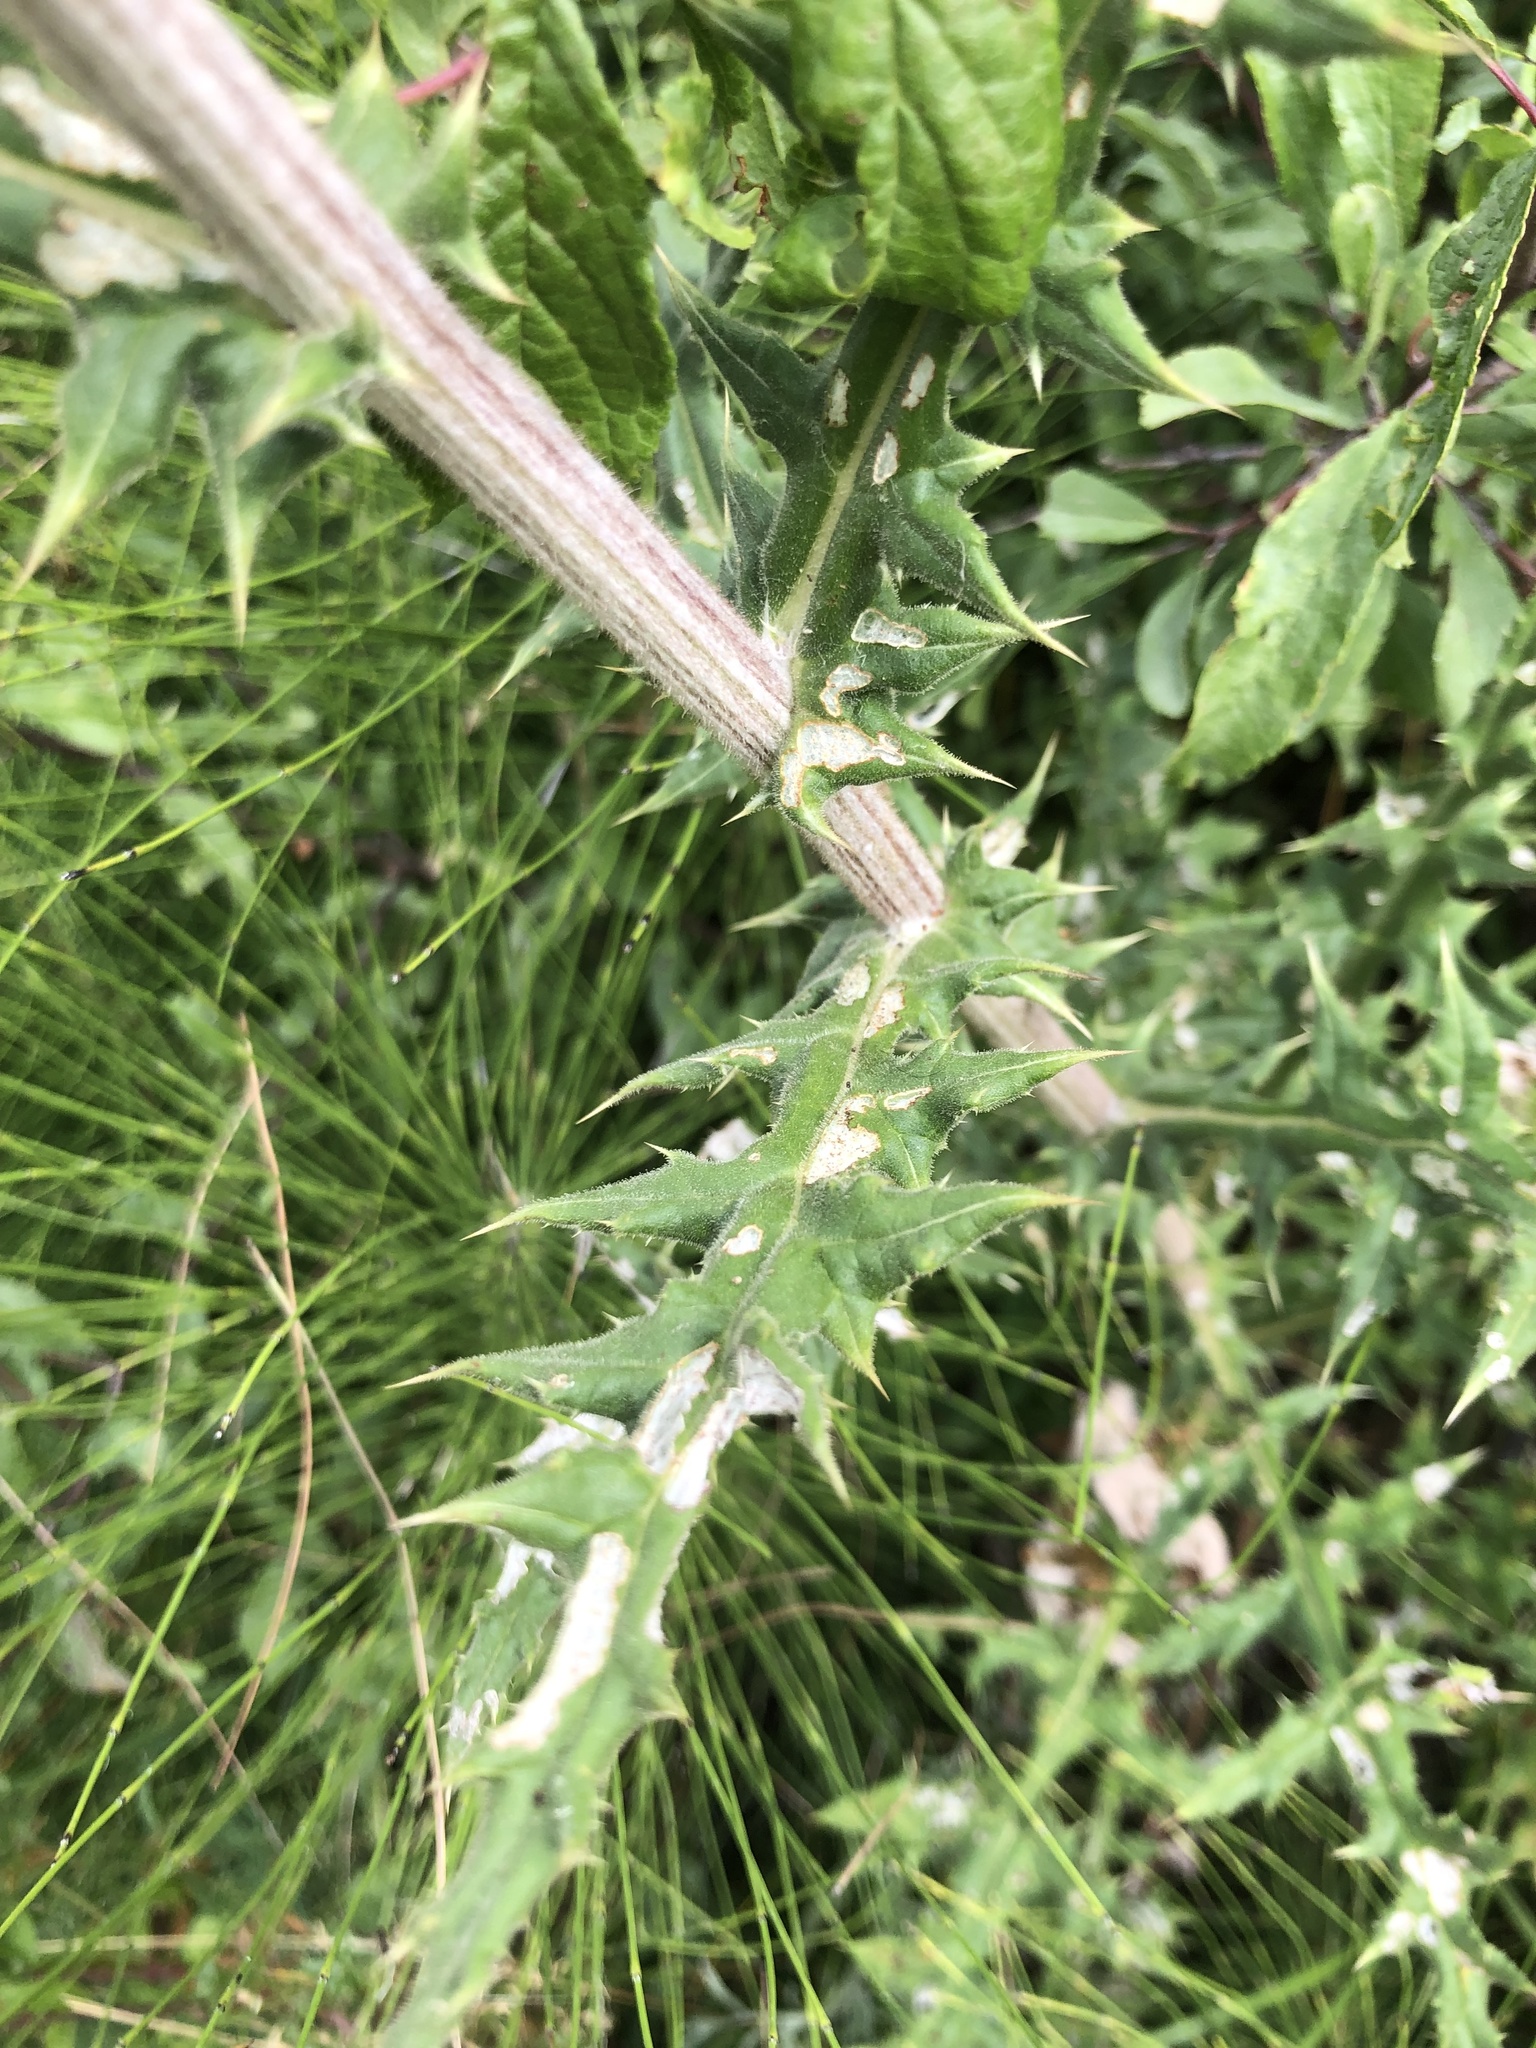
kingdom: Plantae
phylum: Tracheophyta
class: Magnoliopsida
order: Asterales
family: Asteraceae
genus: Echinops
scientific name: Echinops sphaerocephalus
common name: Glandular globe-thistle
